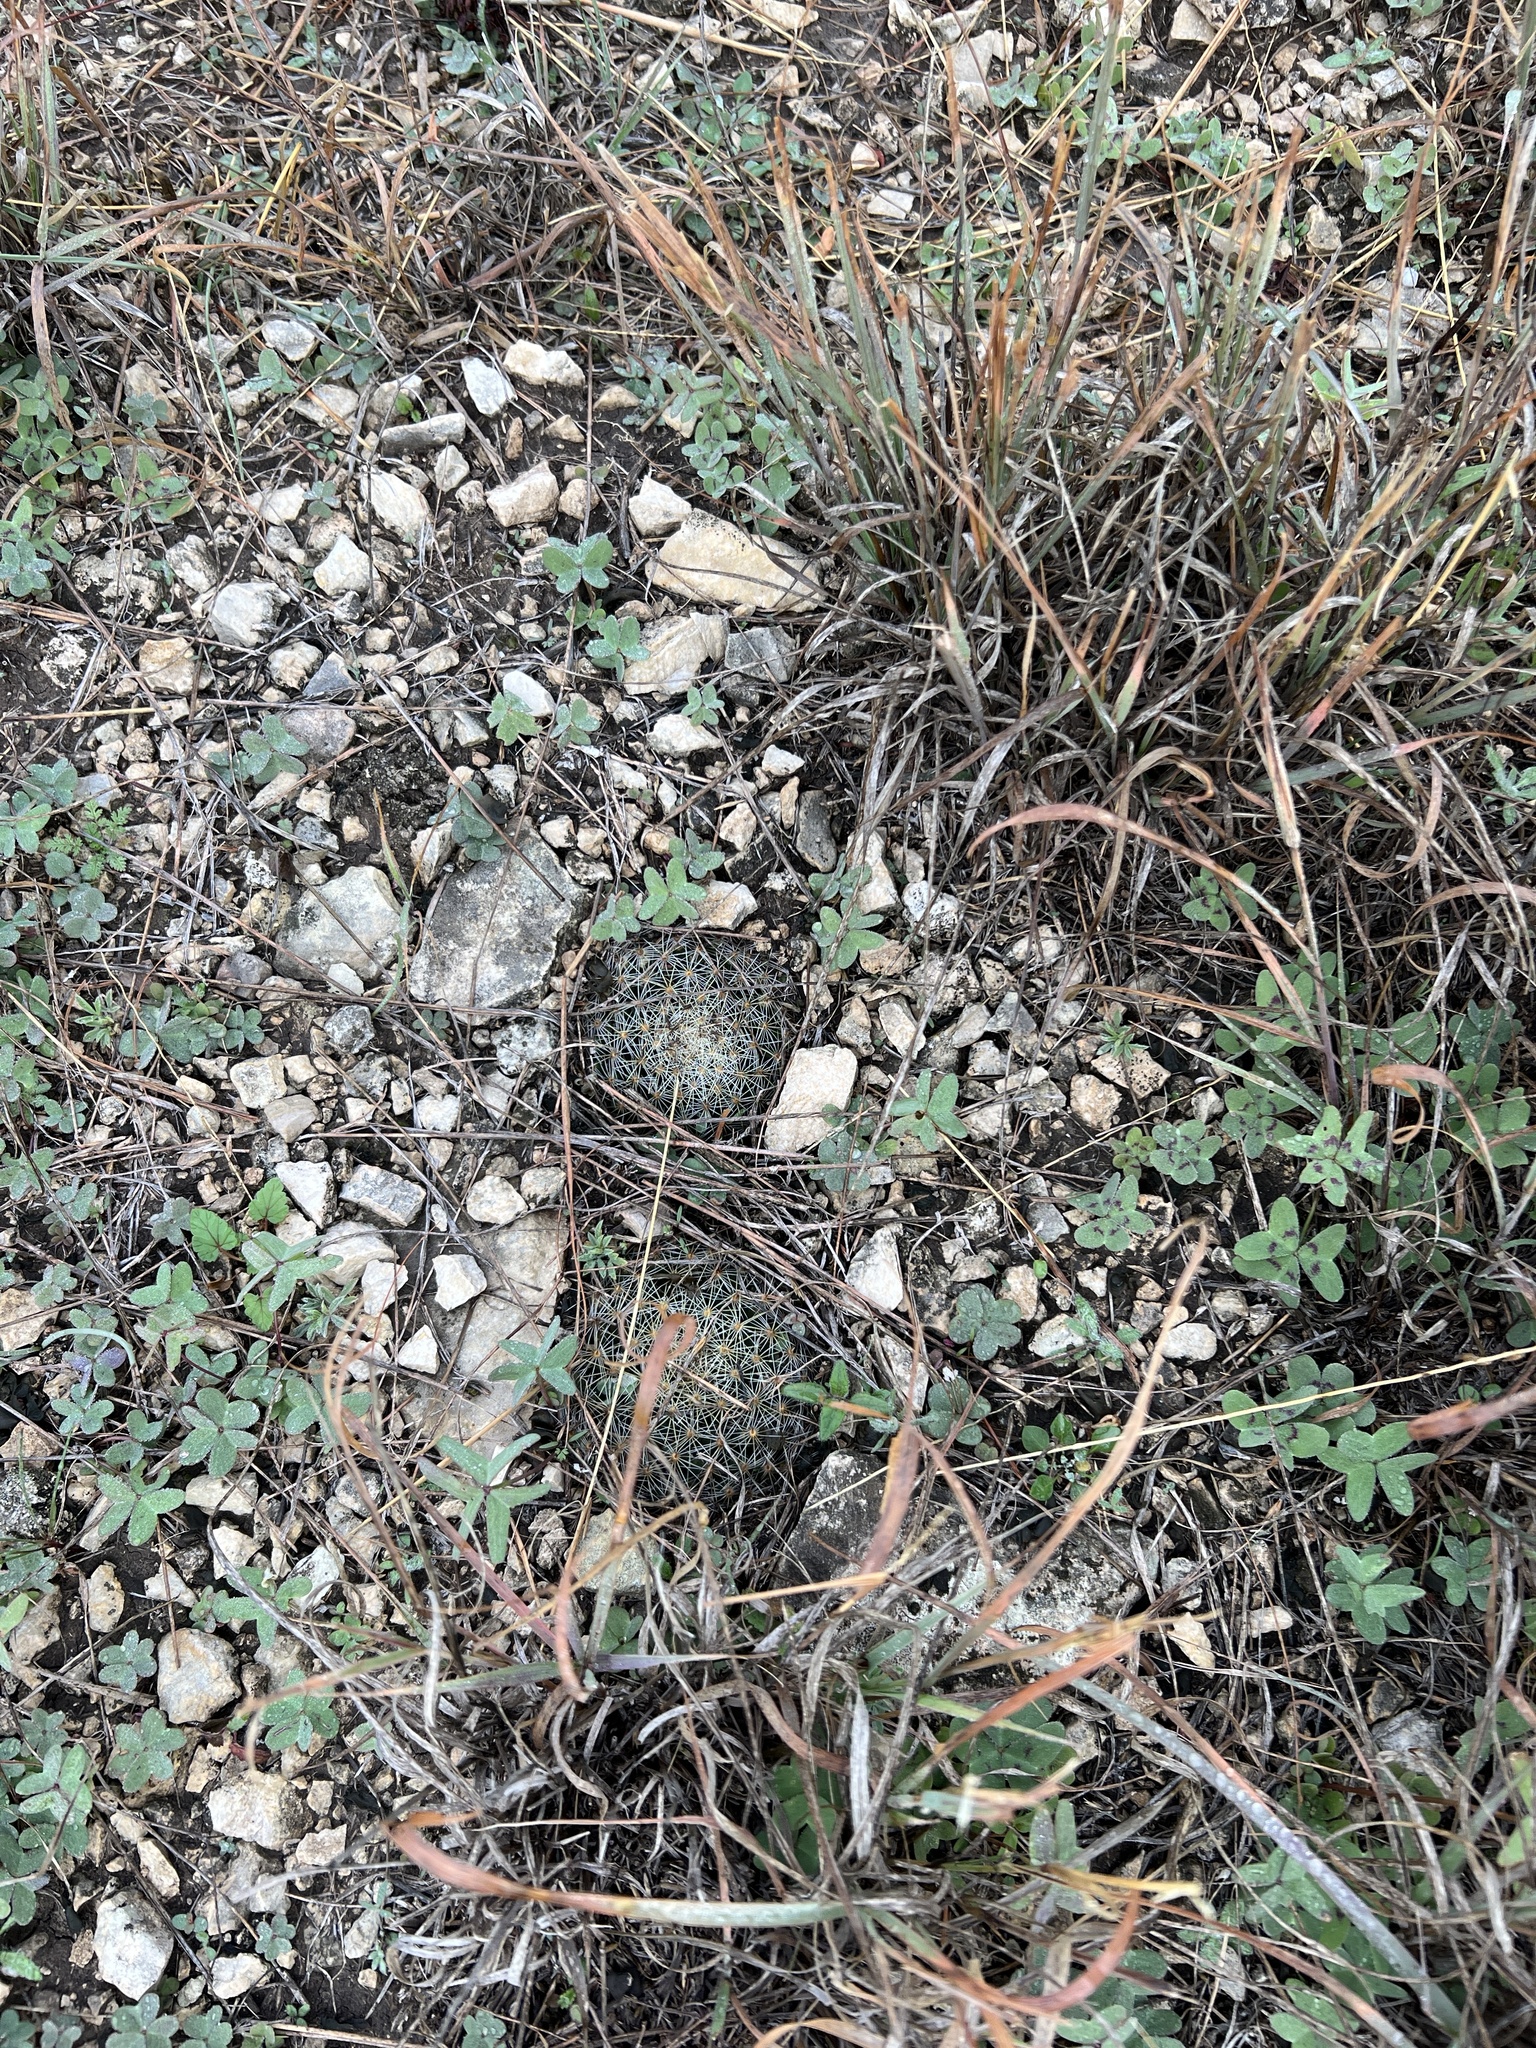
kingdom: Plantae
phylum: Tracheophyta
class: Magnoliopsida
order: Caryophyllales
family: Cactaceae
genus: Mammillaria
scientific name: Mammillaria heyderi
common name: Little nipple cactus
